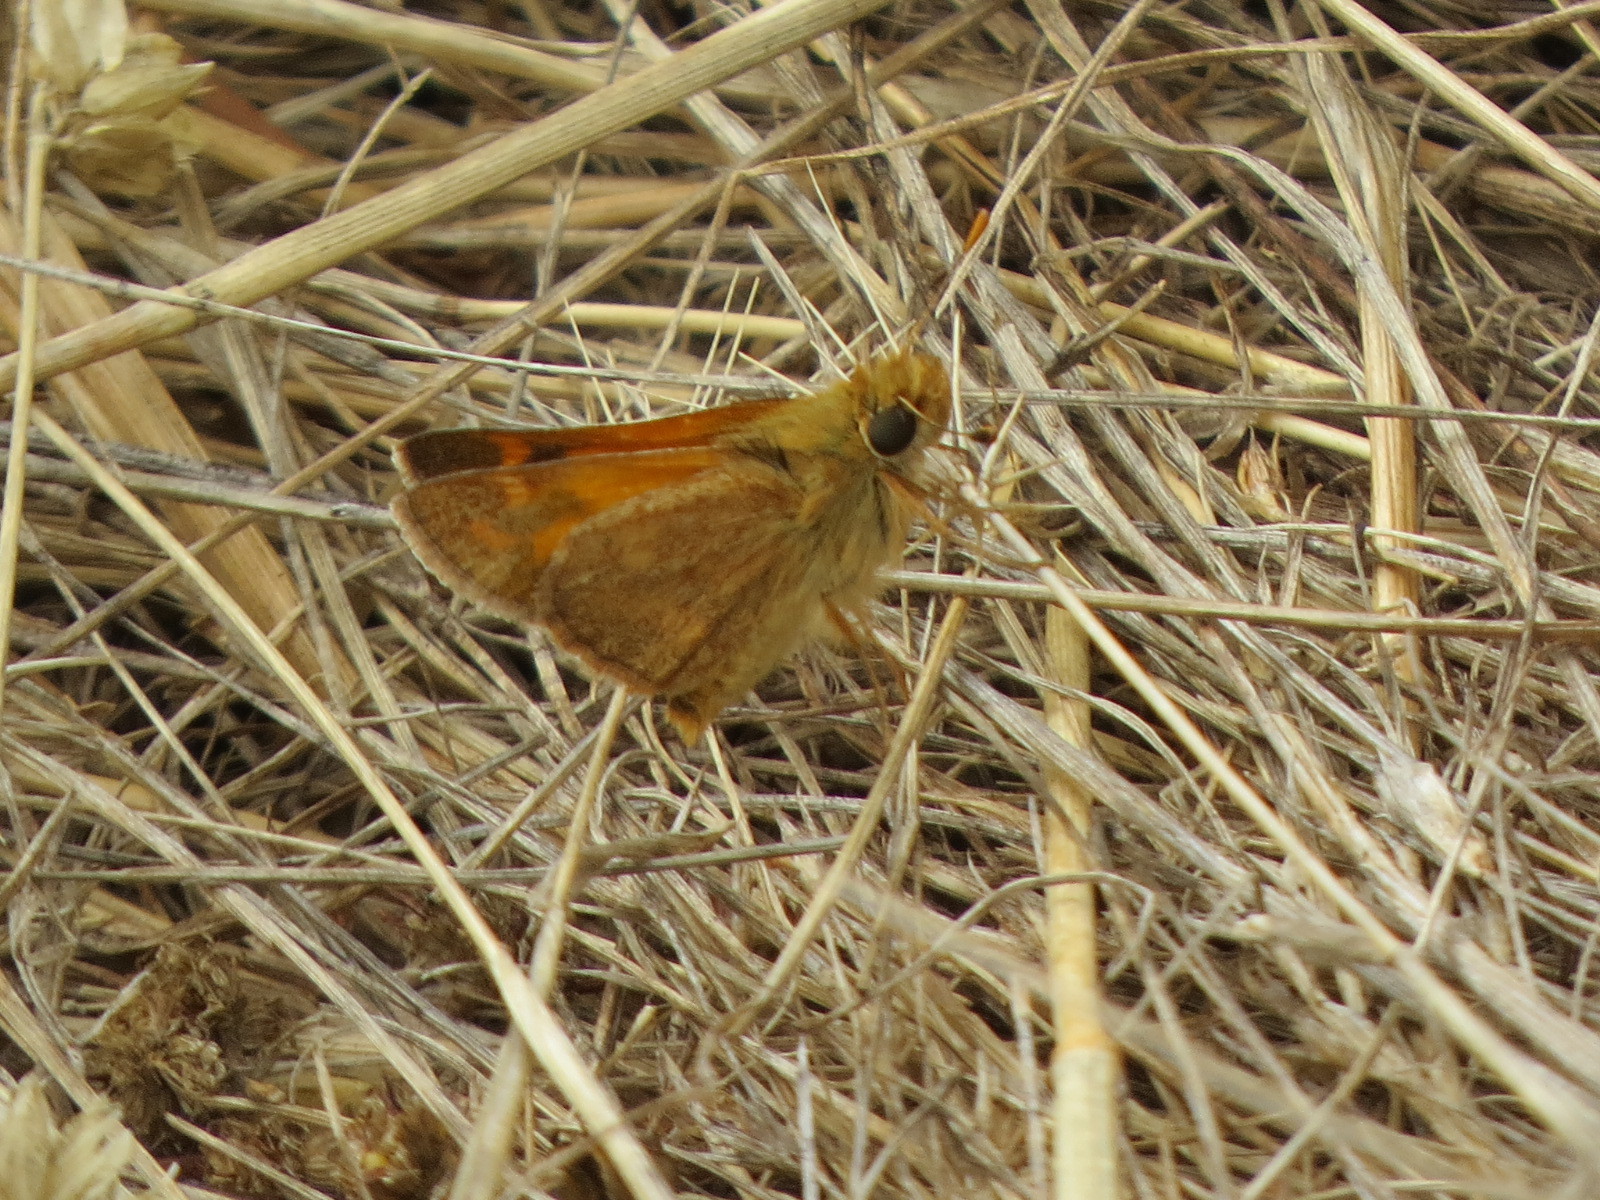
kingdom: Animalia
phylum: Arthropoda
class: Insecta
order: Lepidoptera
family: Hesperiidae
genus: Ochlodes
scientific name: Ochlodes sylvanoides
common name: Woodland skipper
